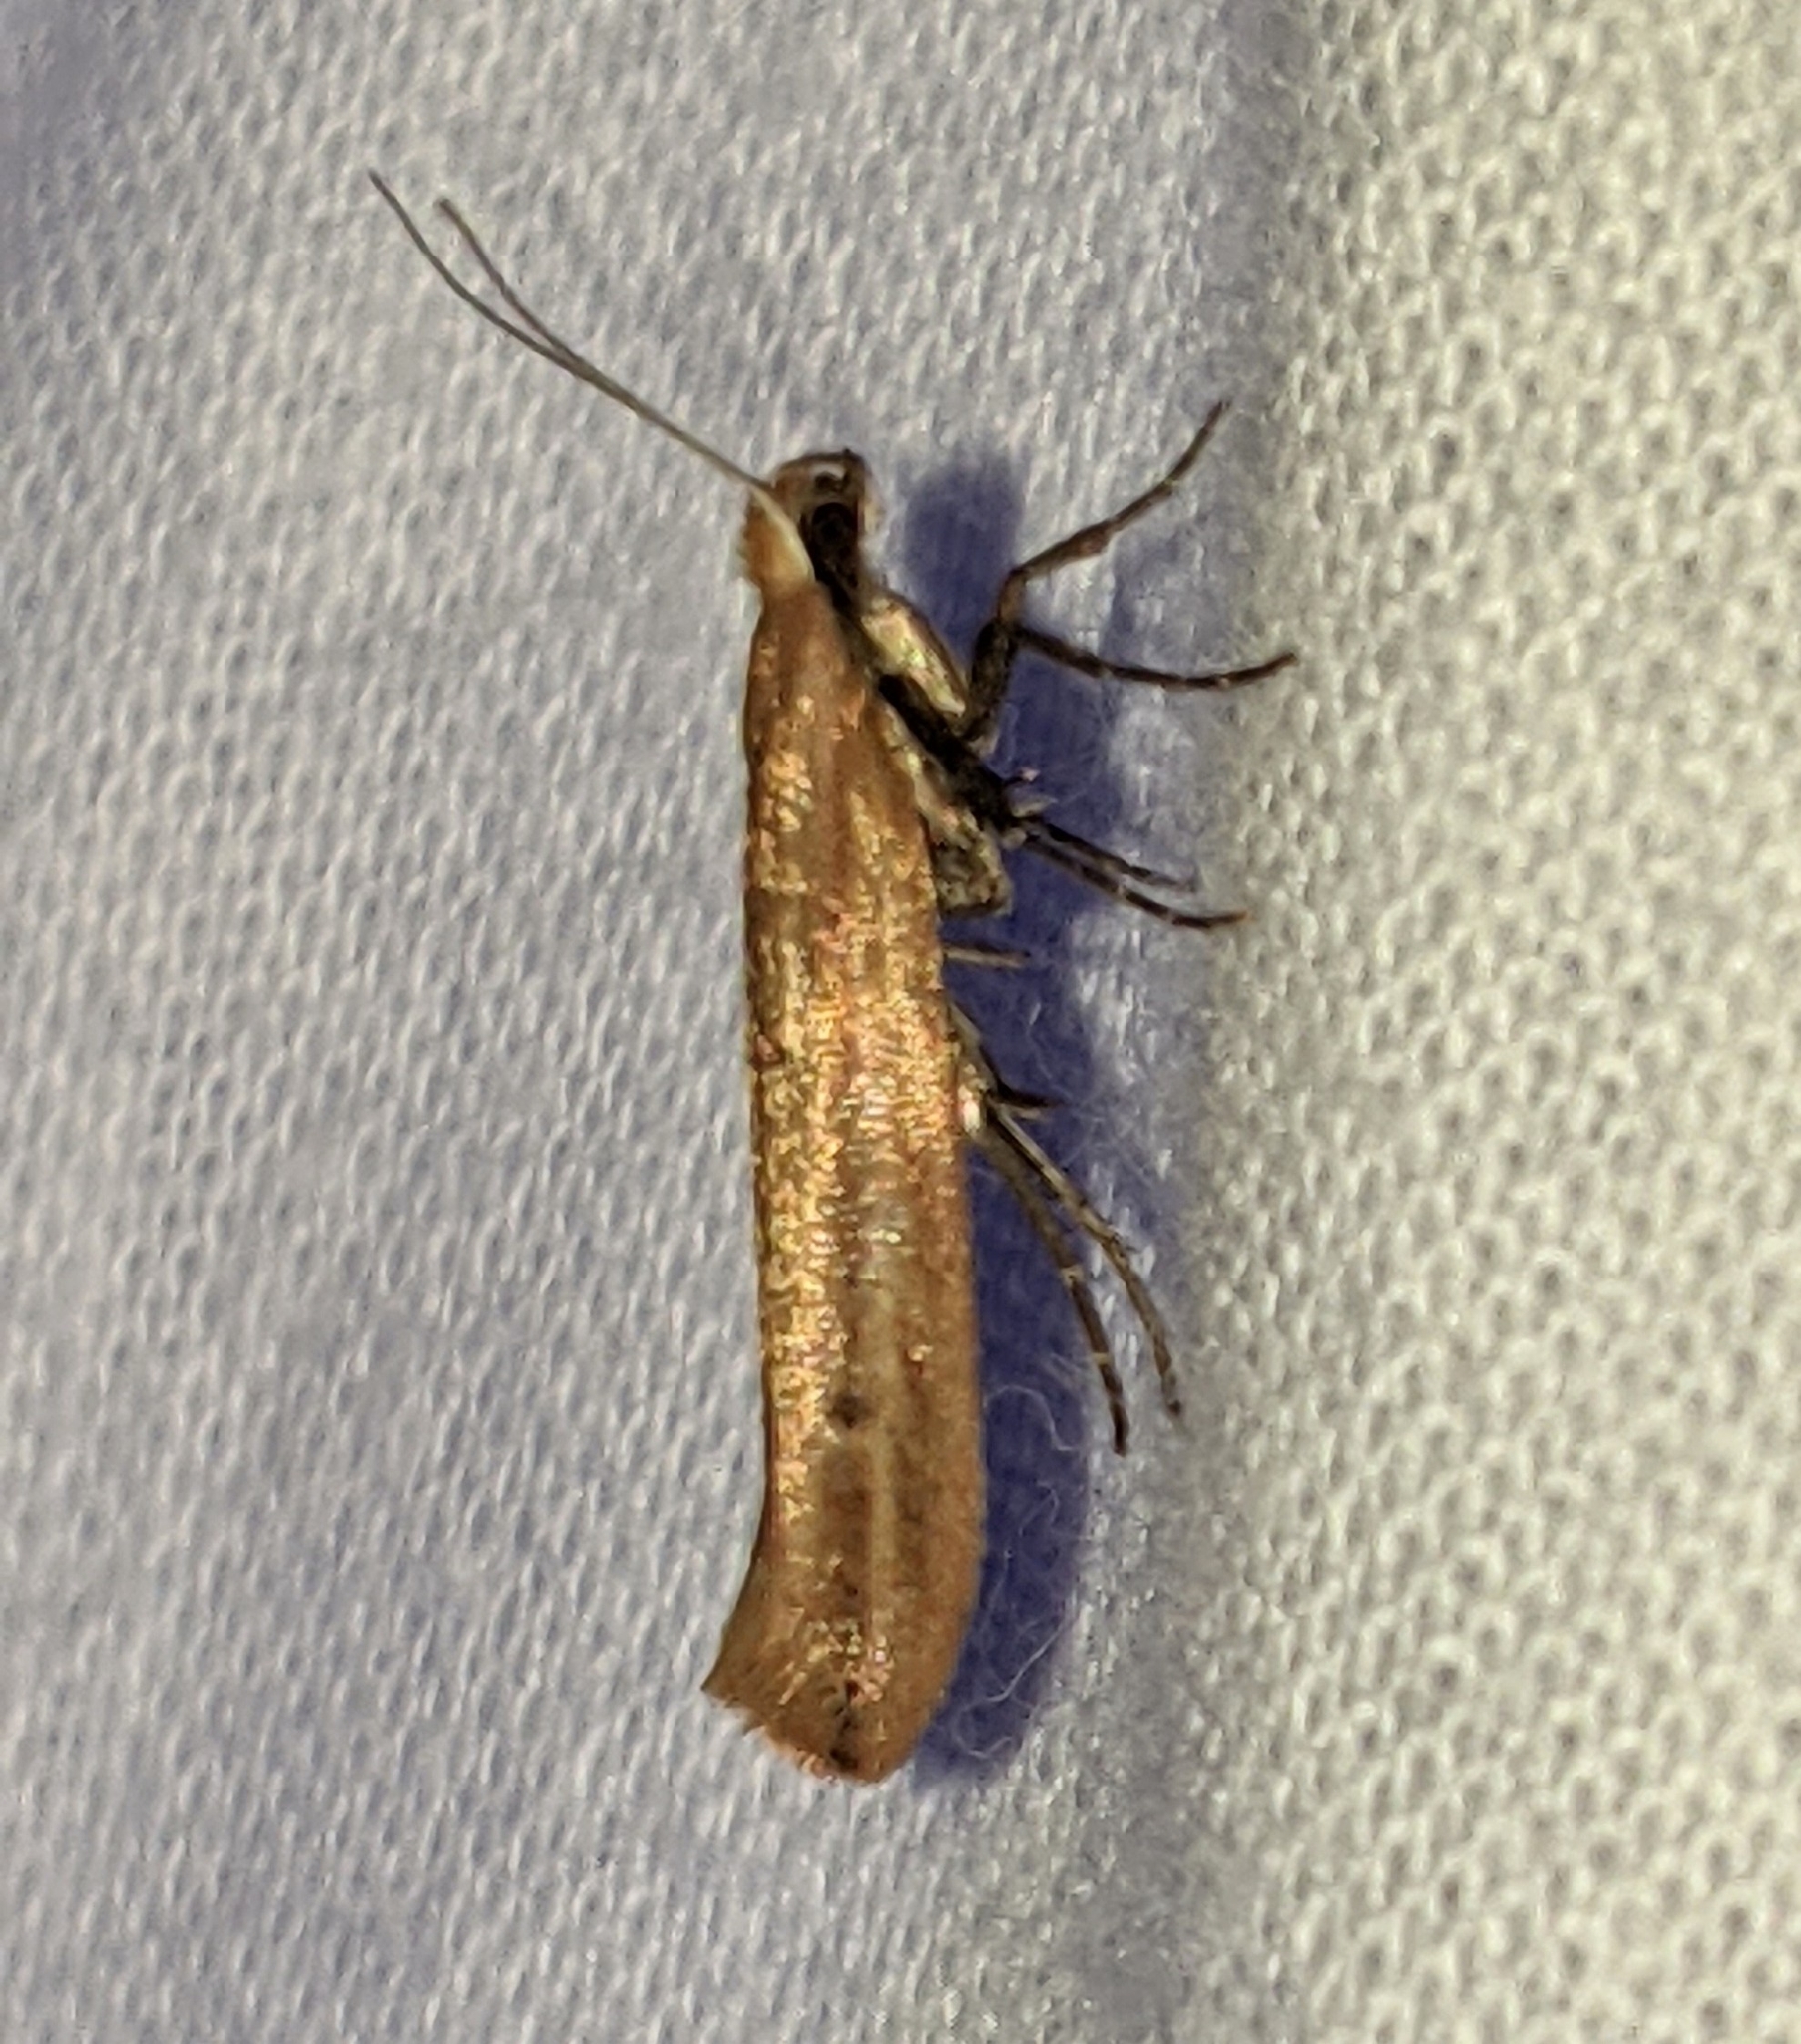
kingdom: Animalia
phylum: Arthropoda
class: Insecta
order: Lepidoptera
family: Ypsolophidae
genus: Ypsolopha
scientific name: Ypsolopha
